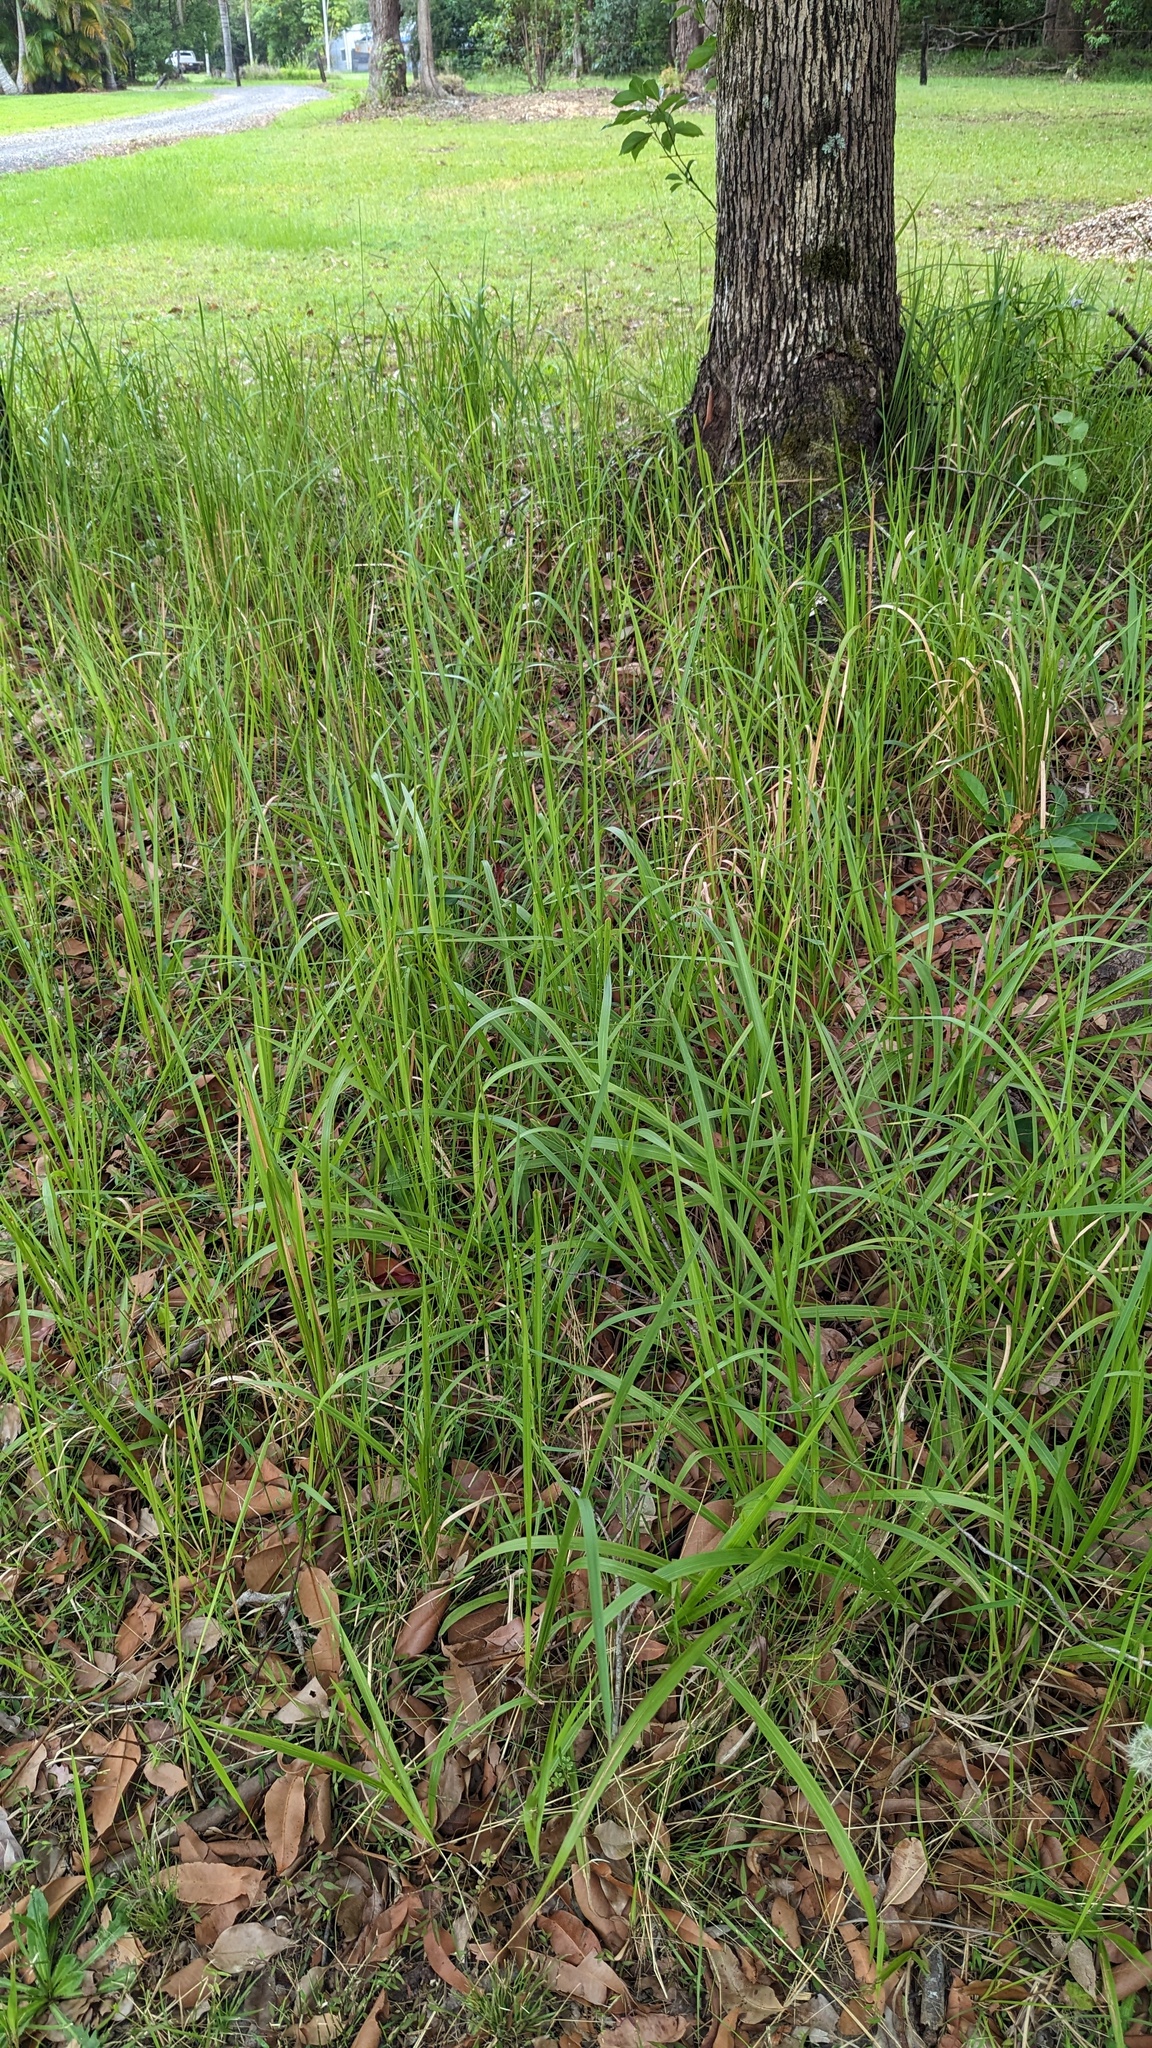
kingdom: Plantae
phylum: Tracheophyta
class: Liliopsida
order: Poales
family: Poaceae
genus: Imperata
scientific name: Imperata cylindrica
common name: Cogongrass
